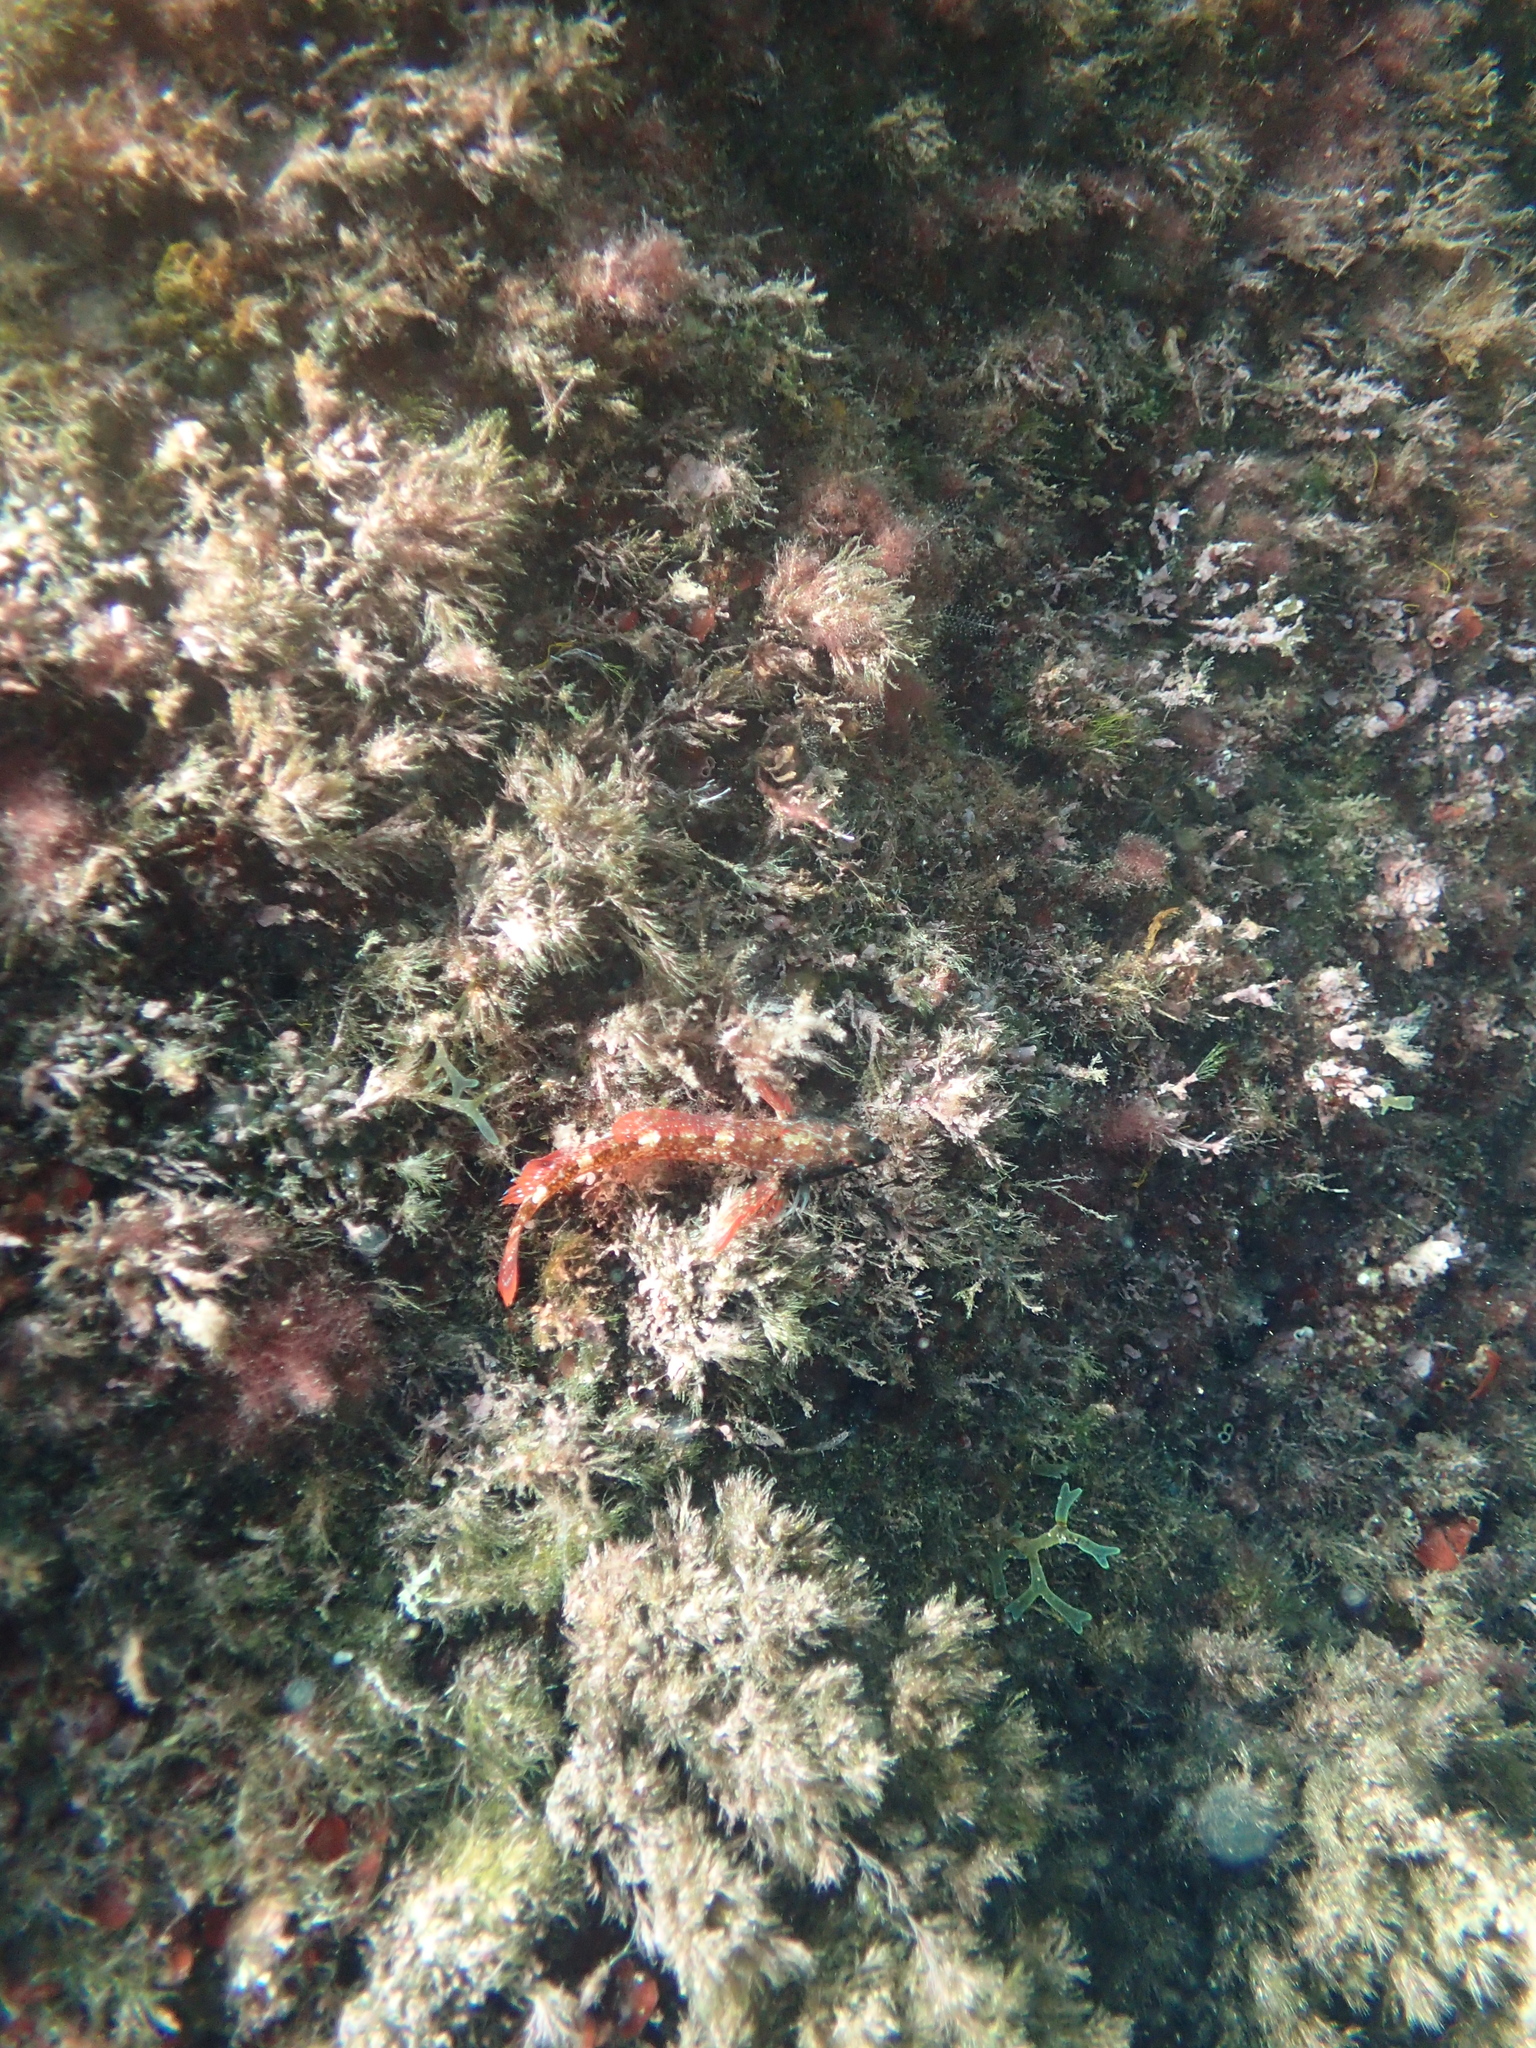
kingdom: Animalia
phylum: Chordata
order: Perciformes
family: Tripterygiidae
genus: Tripterygion
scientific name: Tripterygion tripteronotum
